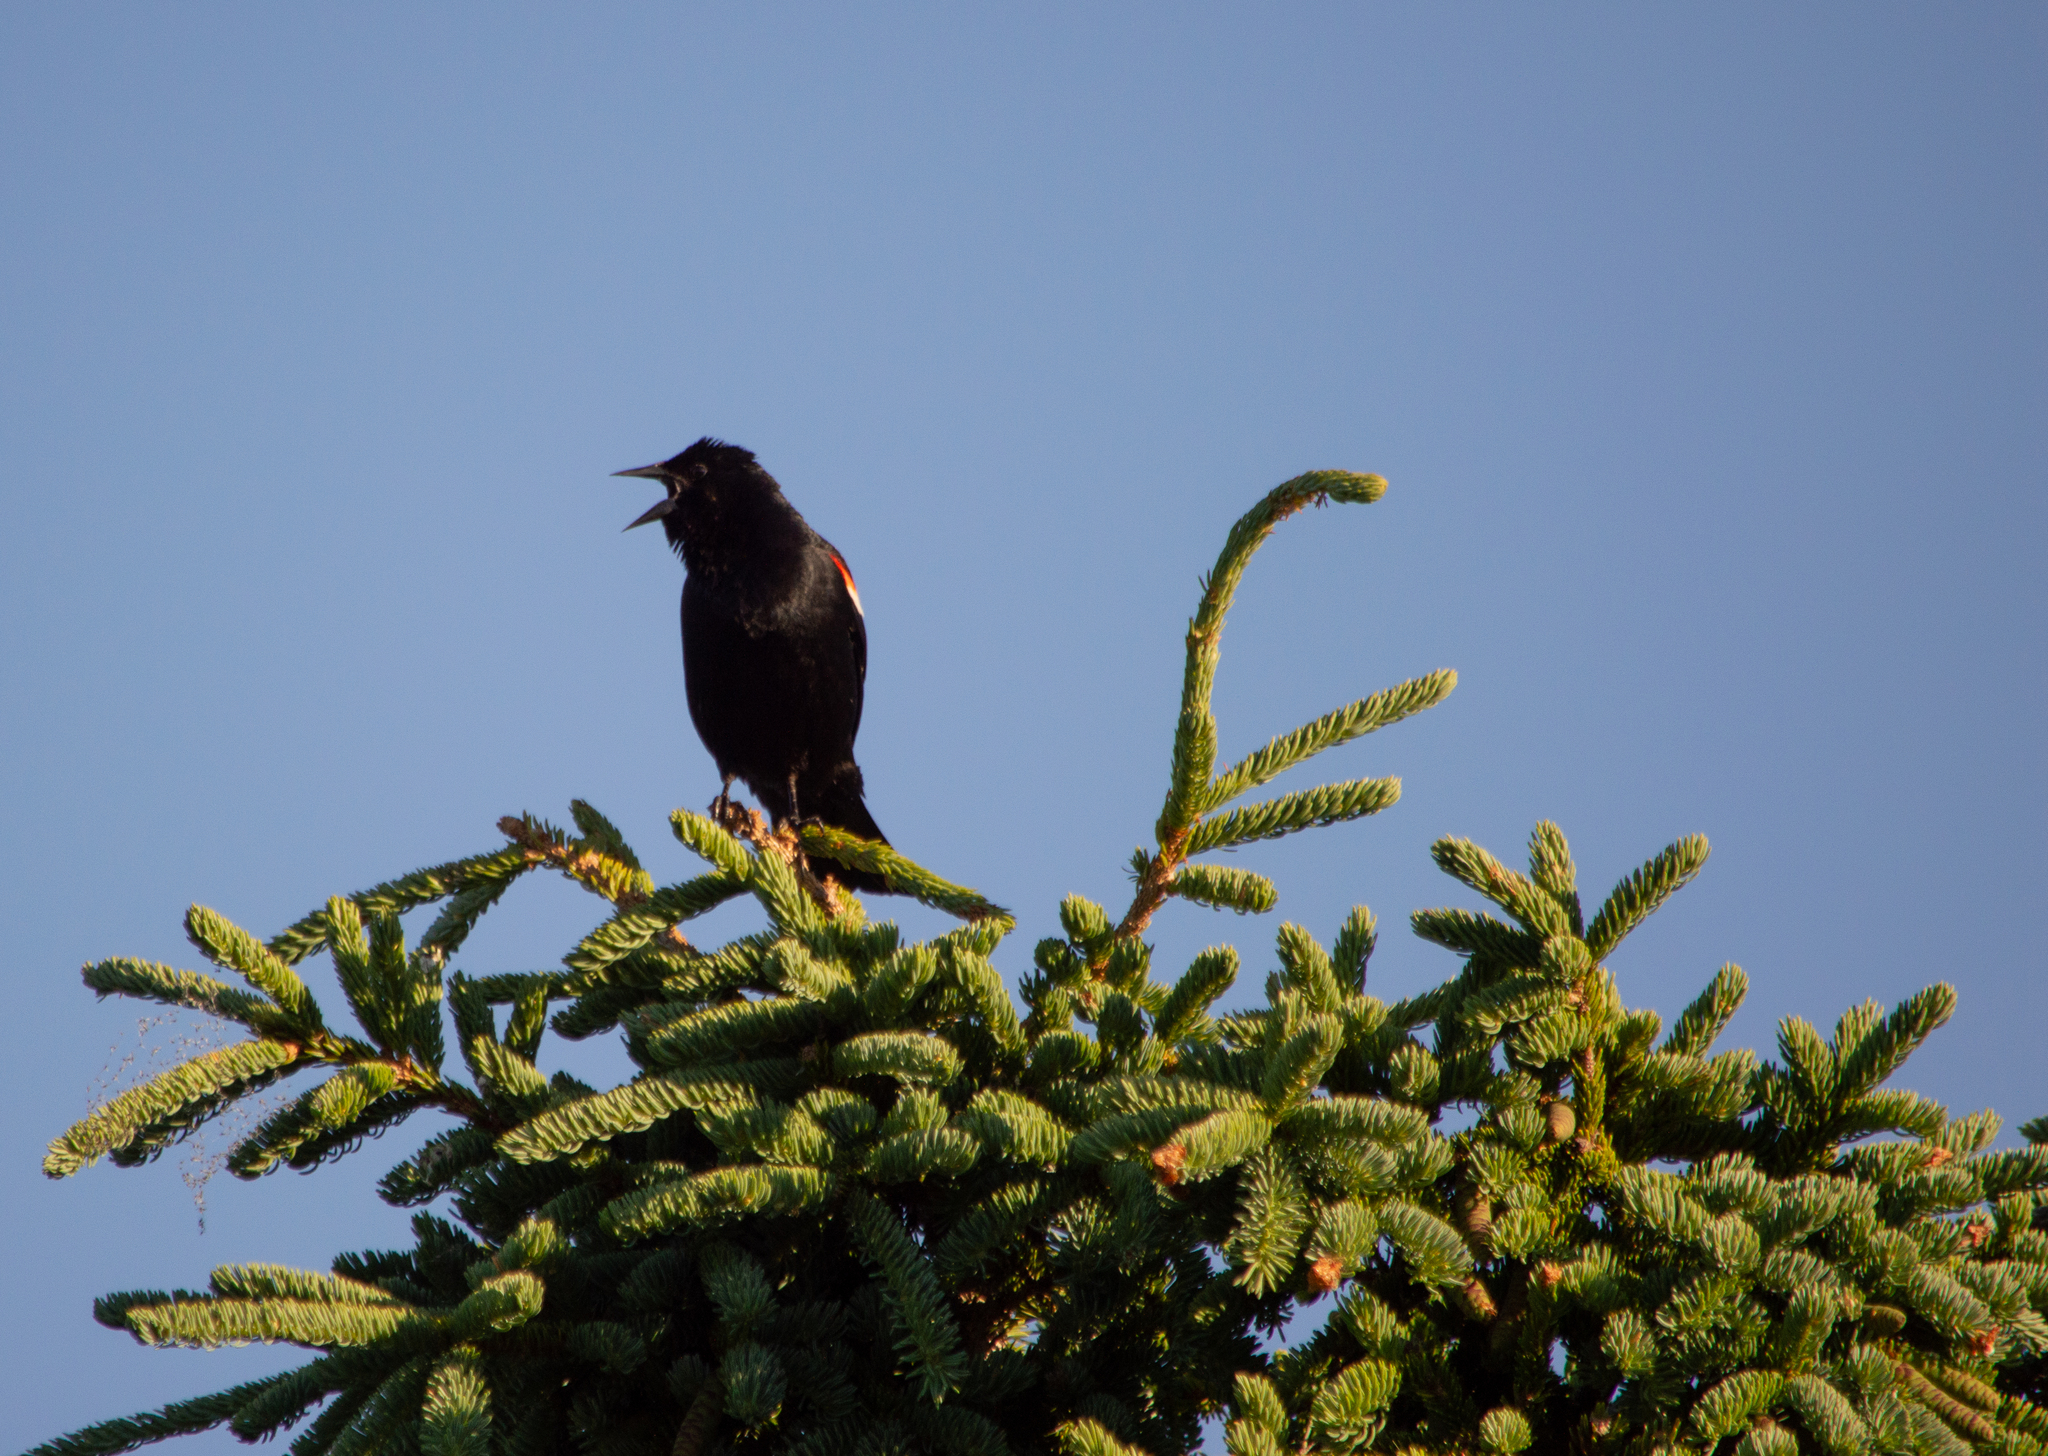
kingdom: Animalia
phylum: Chordata
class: Aves
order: Passeriformes
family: Icteridae
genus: Agelaius
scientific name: Agelaius phoeniceus
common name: Red-winged blackbird
